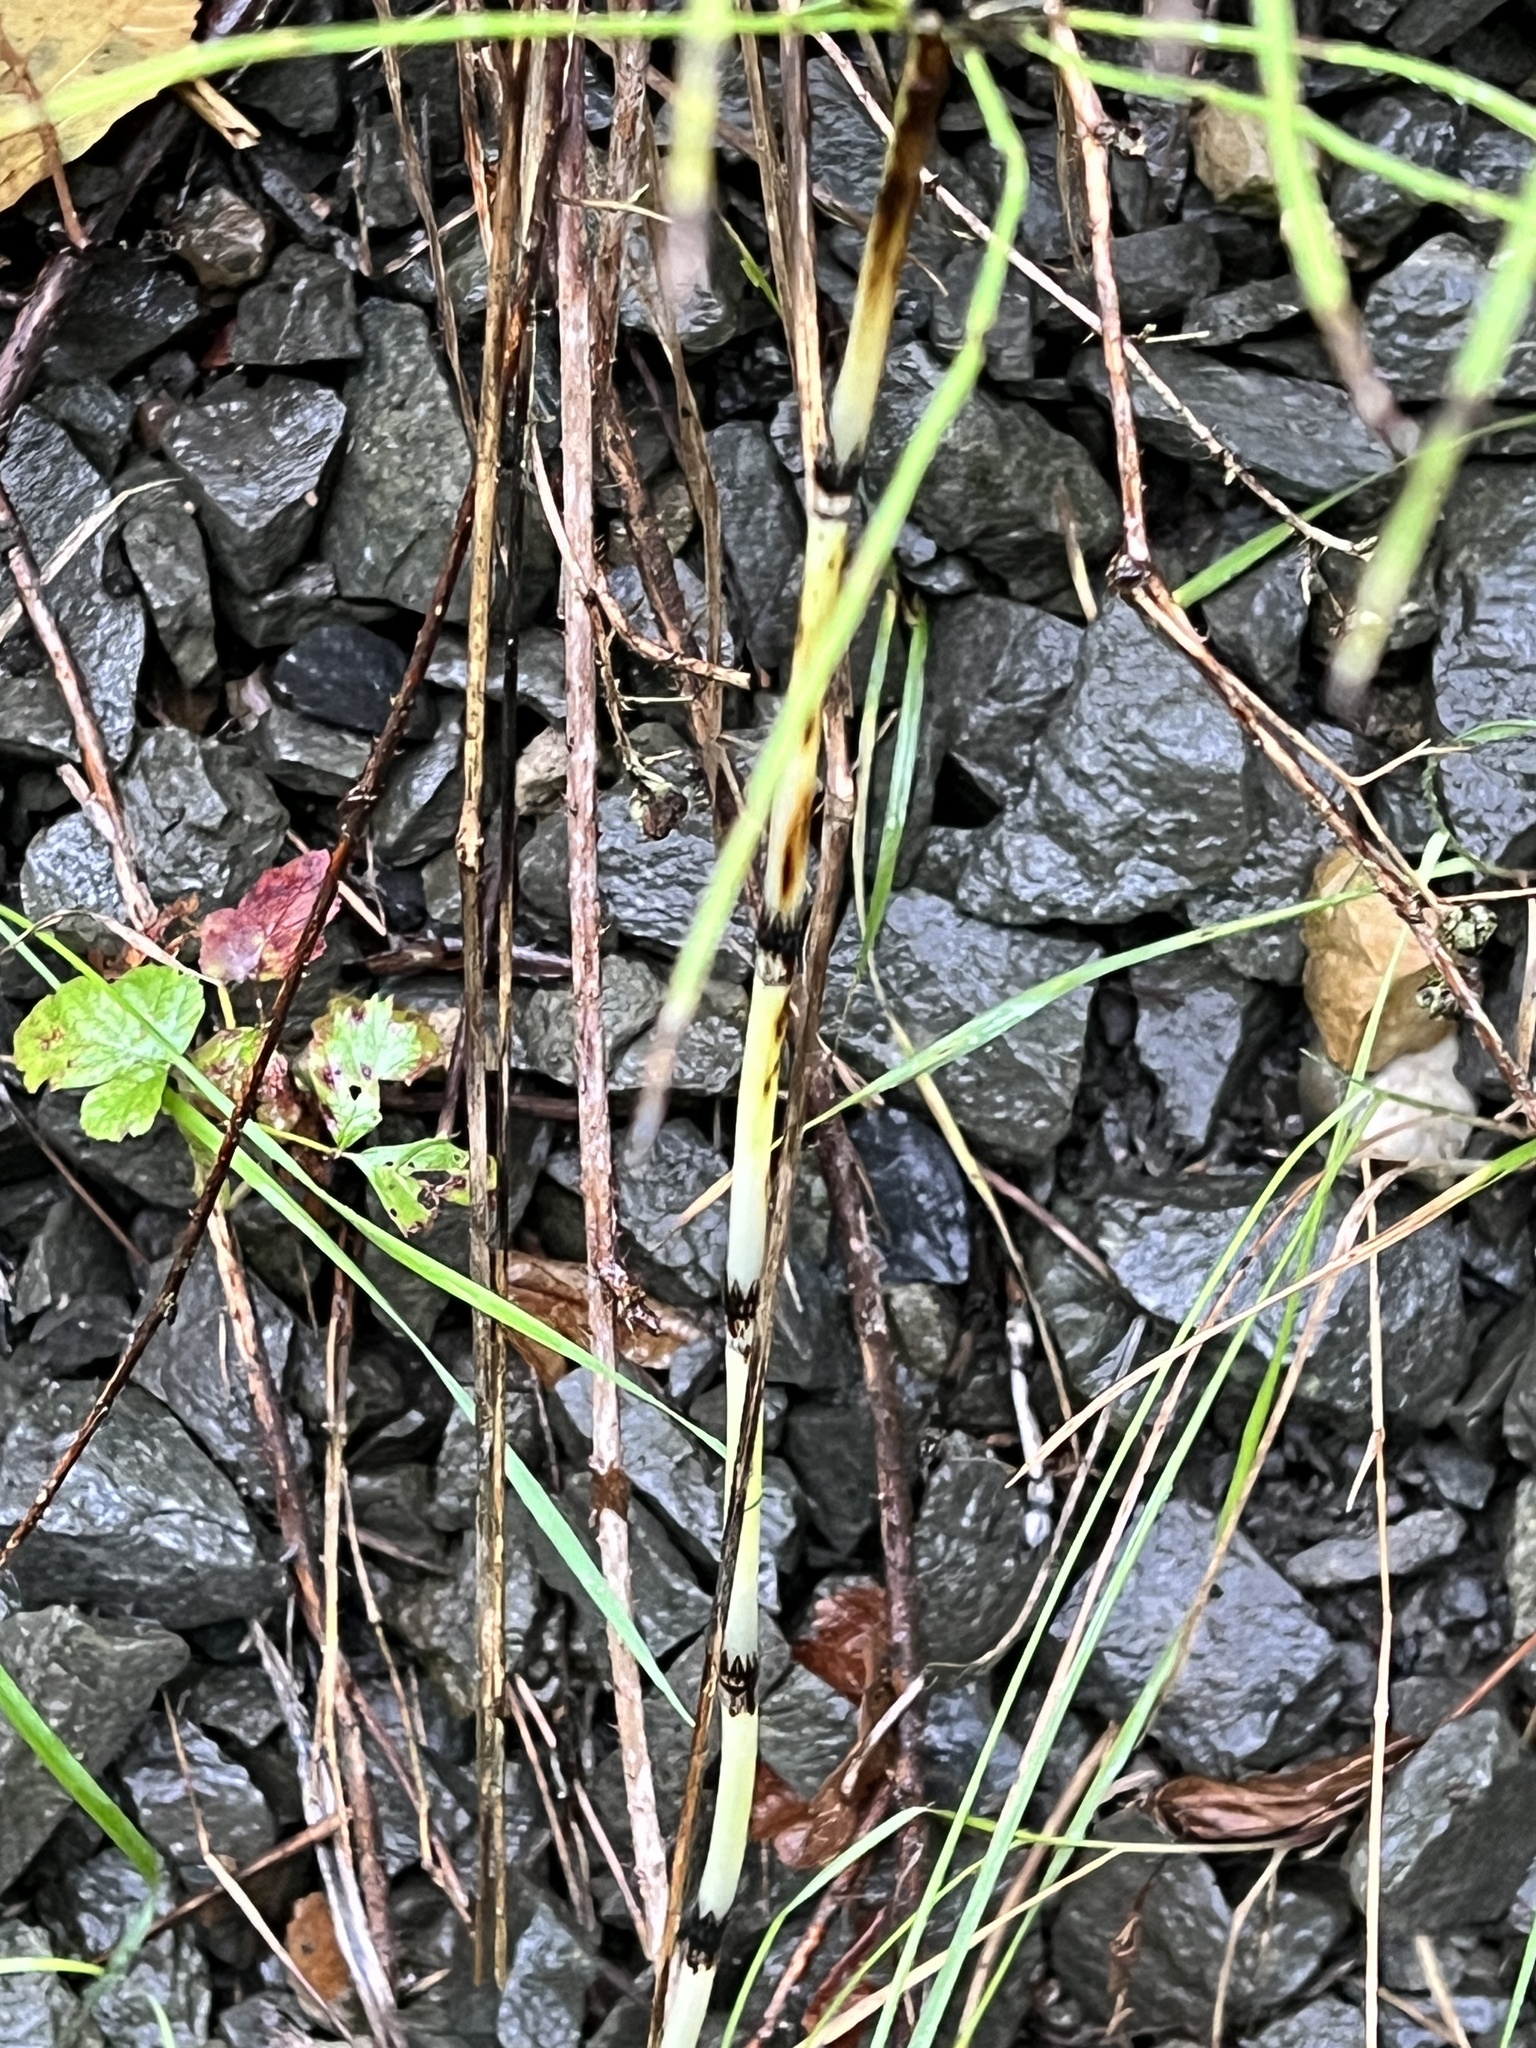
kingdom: Plantae
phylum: Tracheophyta
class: Polypodiopsida
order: Equisetales
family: Equisetaceae
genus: Equisetum
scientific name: Equisetum arvense
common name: Field horsetail
